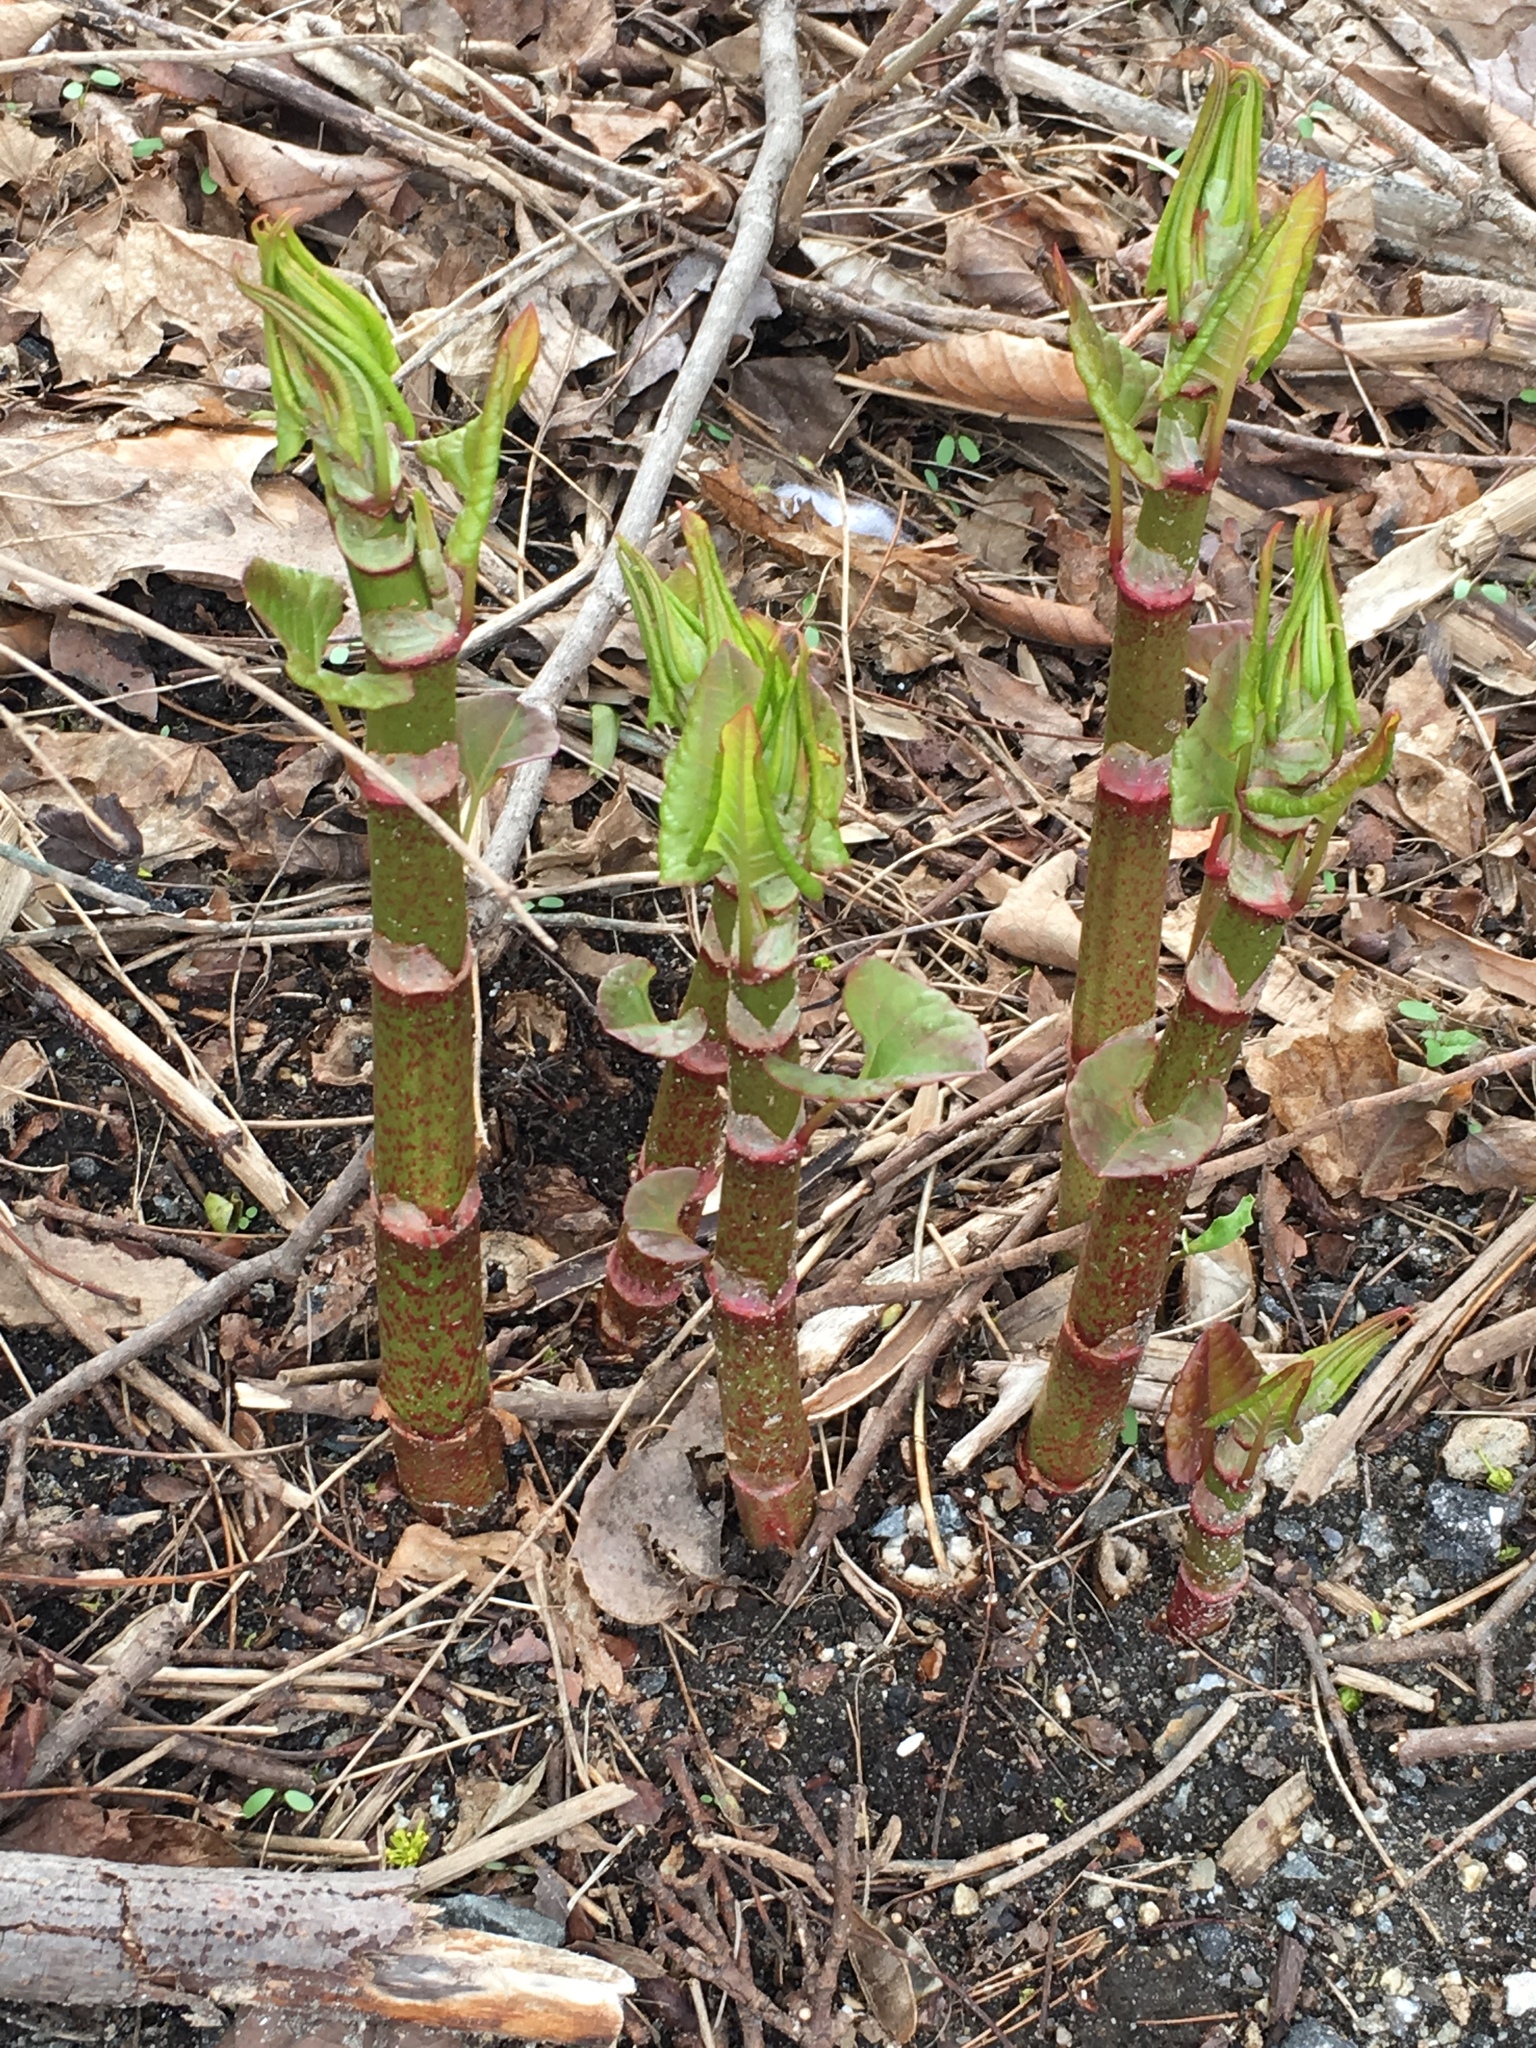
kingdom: Plantae
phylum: Tracheophyta
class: Magnoliopsida
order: Caryophyllales
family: Polygonaceae
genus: Reynoutria
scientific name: Reynoutria japonica
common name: Japanese knotweed
